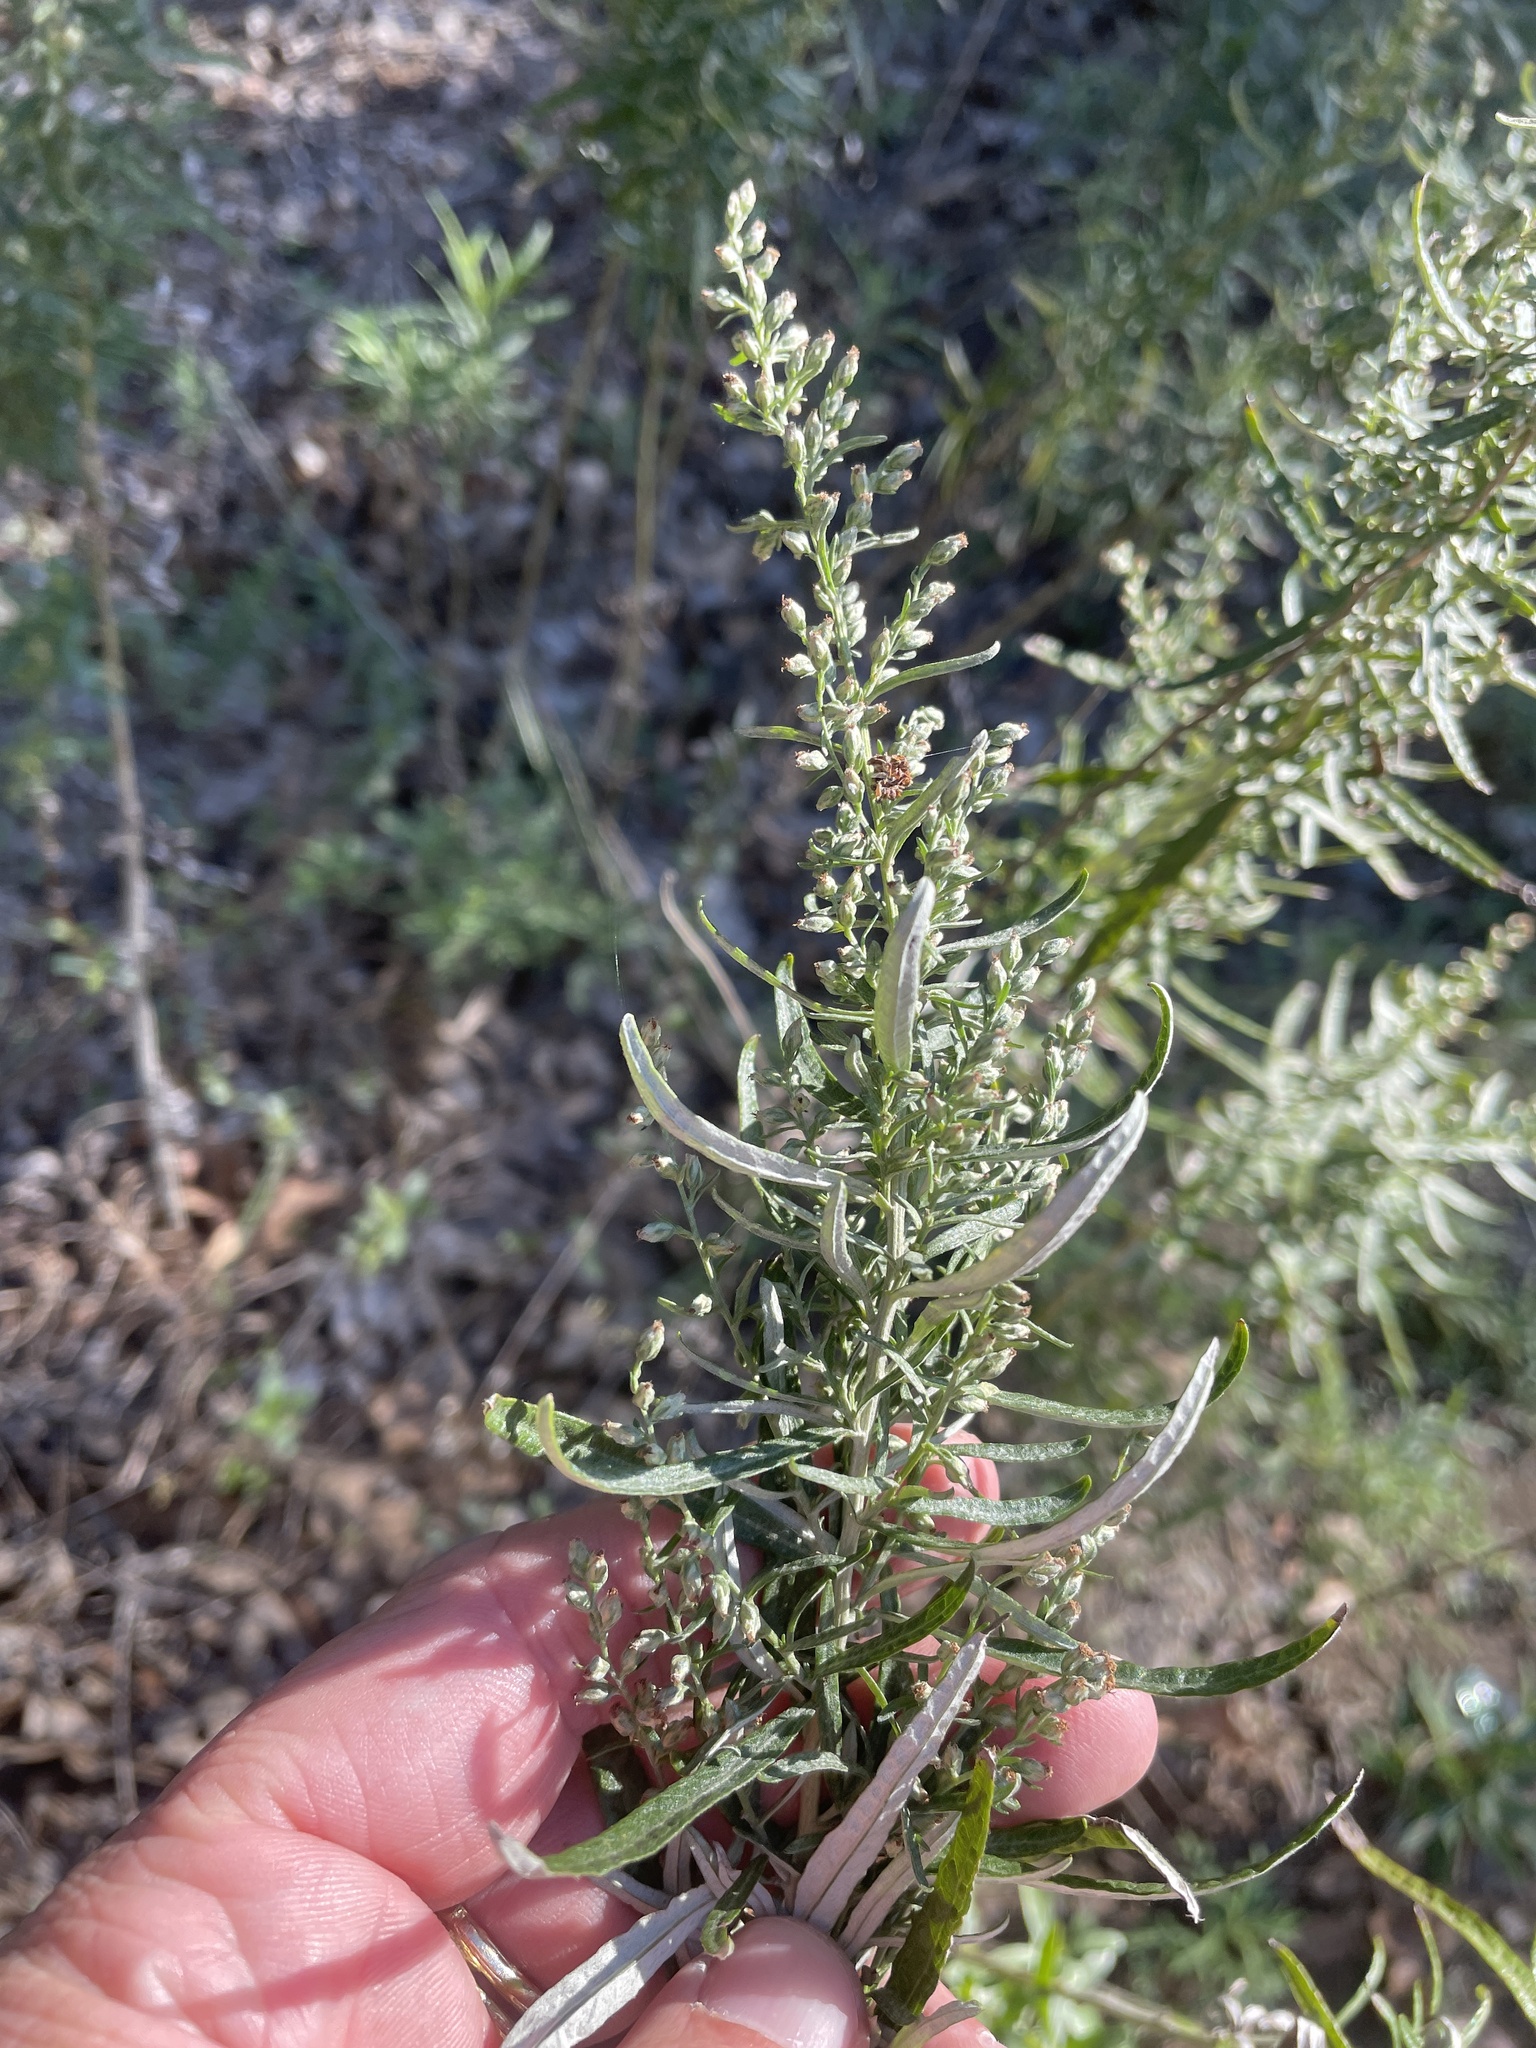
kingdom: Plantae
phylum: Tracheophyta
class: Magnoliopsida
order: Asterales
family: Asteraceae
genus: Artemisia
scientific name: Artemisia ludoviciana
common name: Western mugwort
